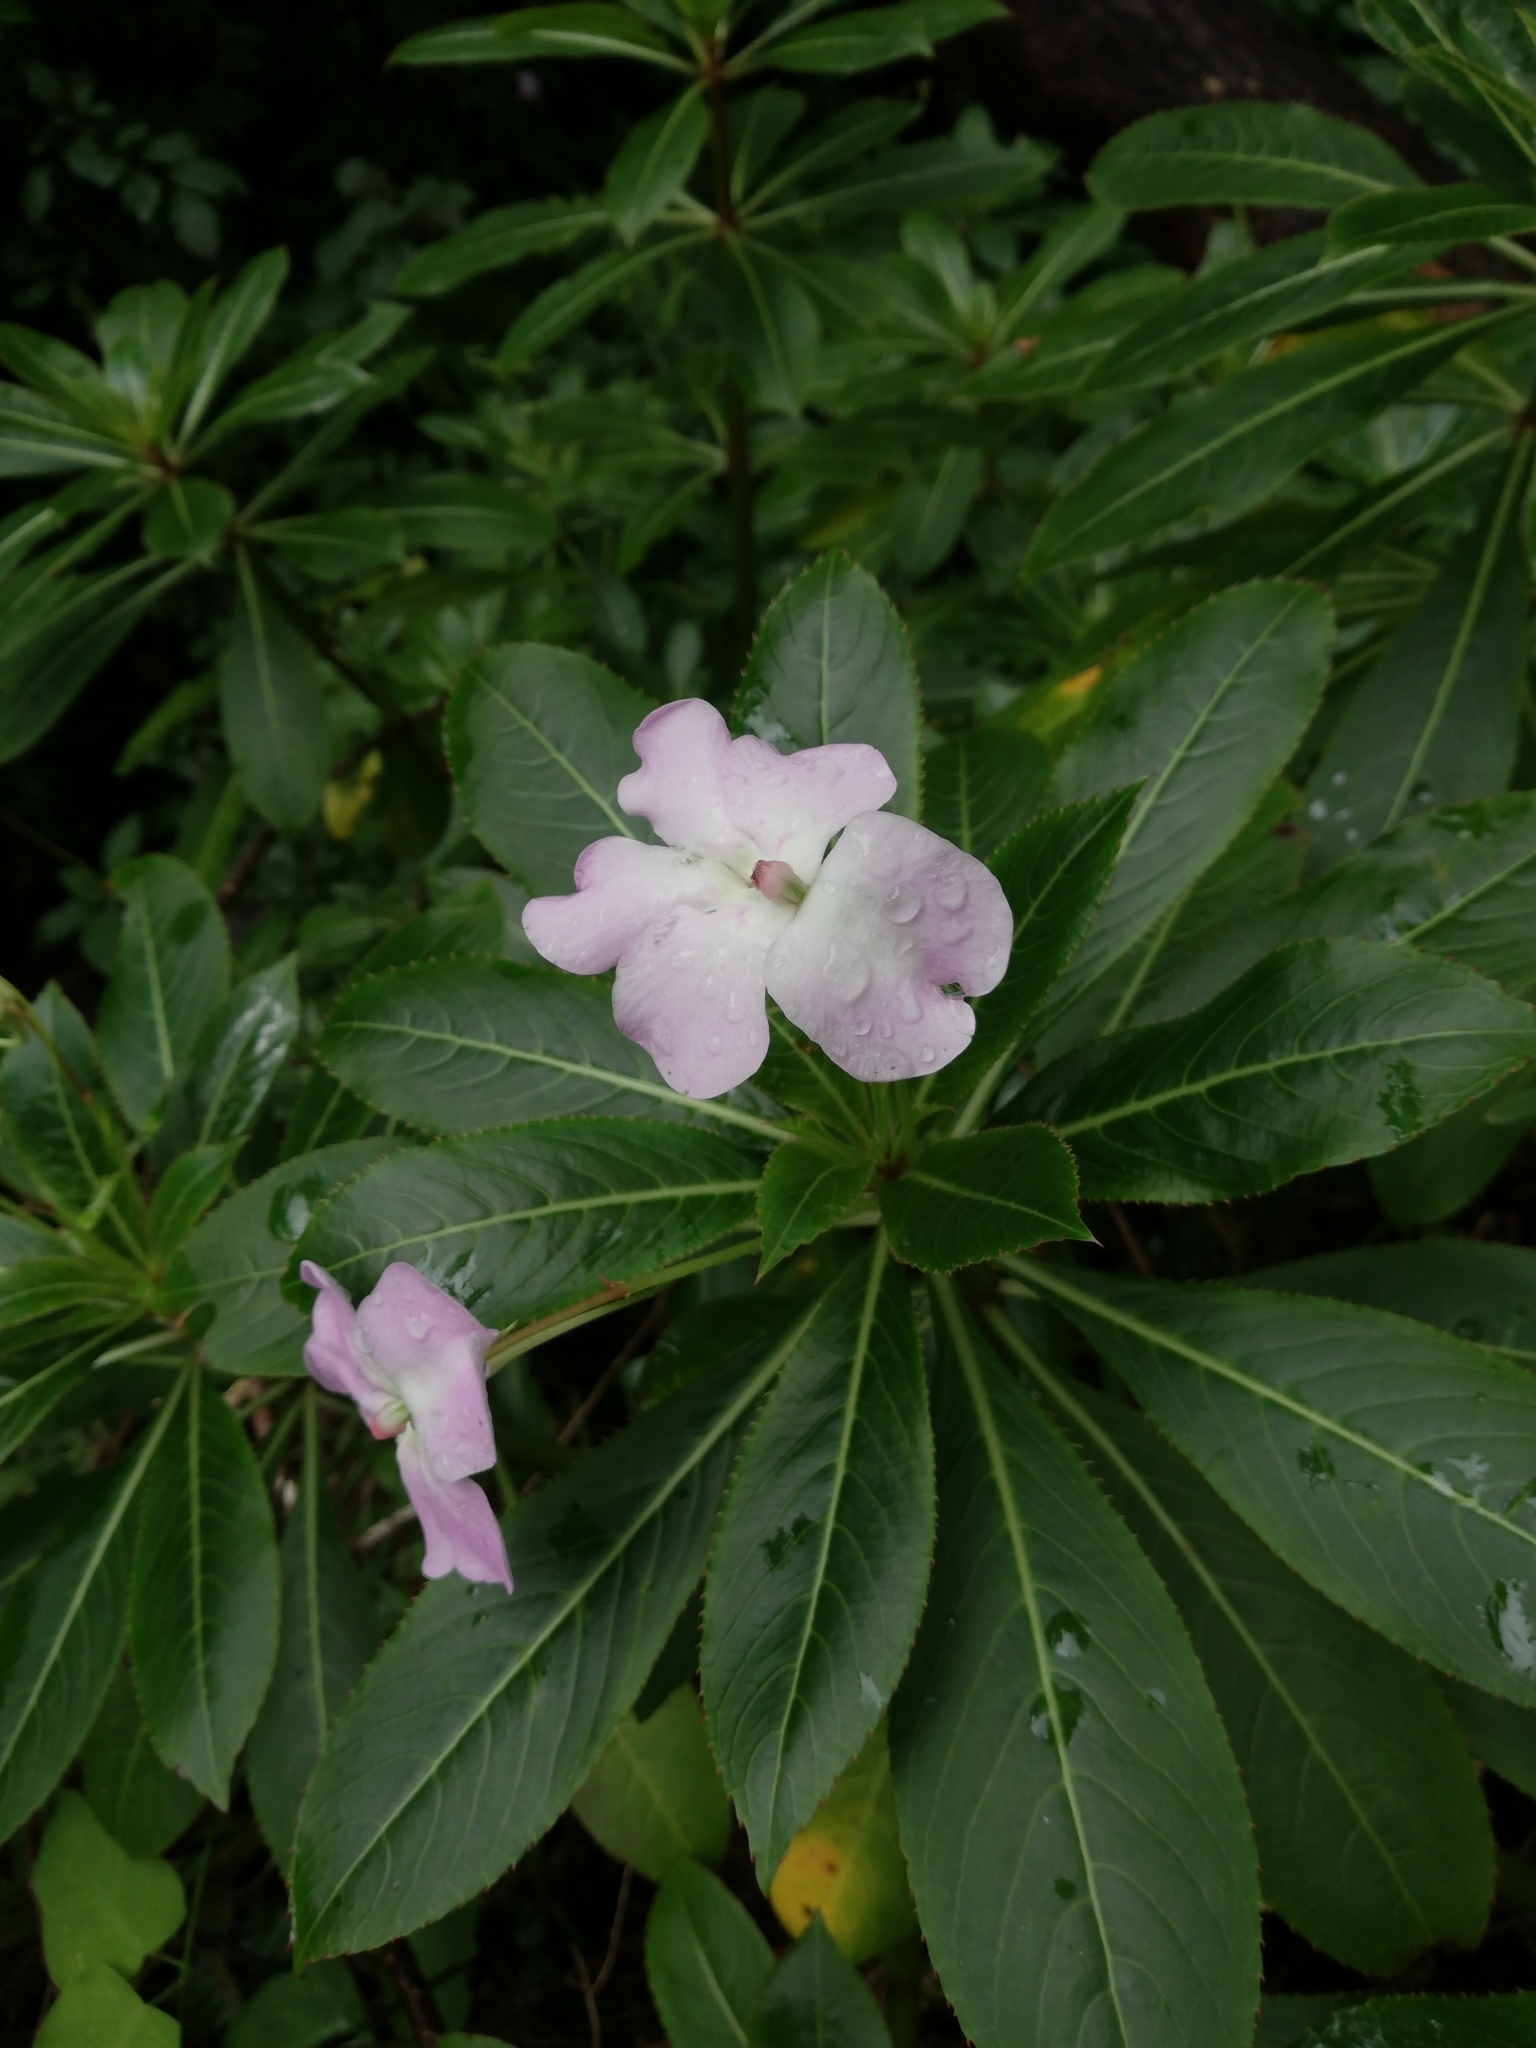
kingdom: Plantae
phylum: Tracheophyta
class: Magnoliopsida
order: Ericales
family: Balsaminaceae
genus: Impatiens
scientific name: Impatiens sodenii
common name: Oliver's touch-me-not
